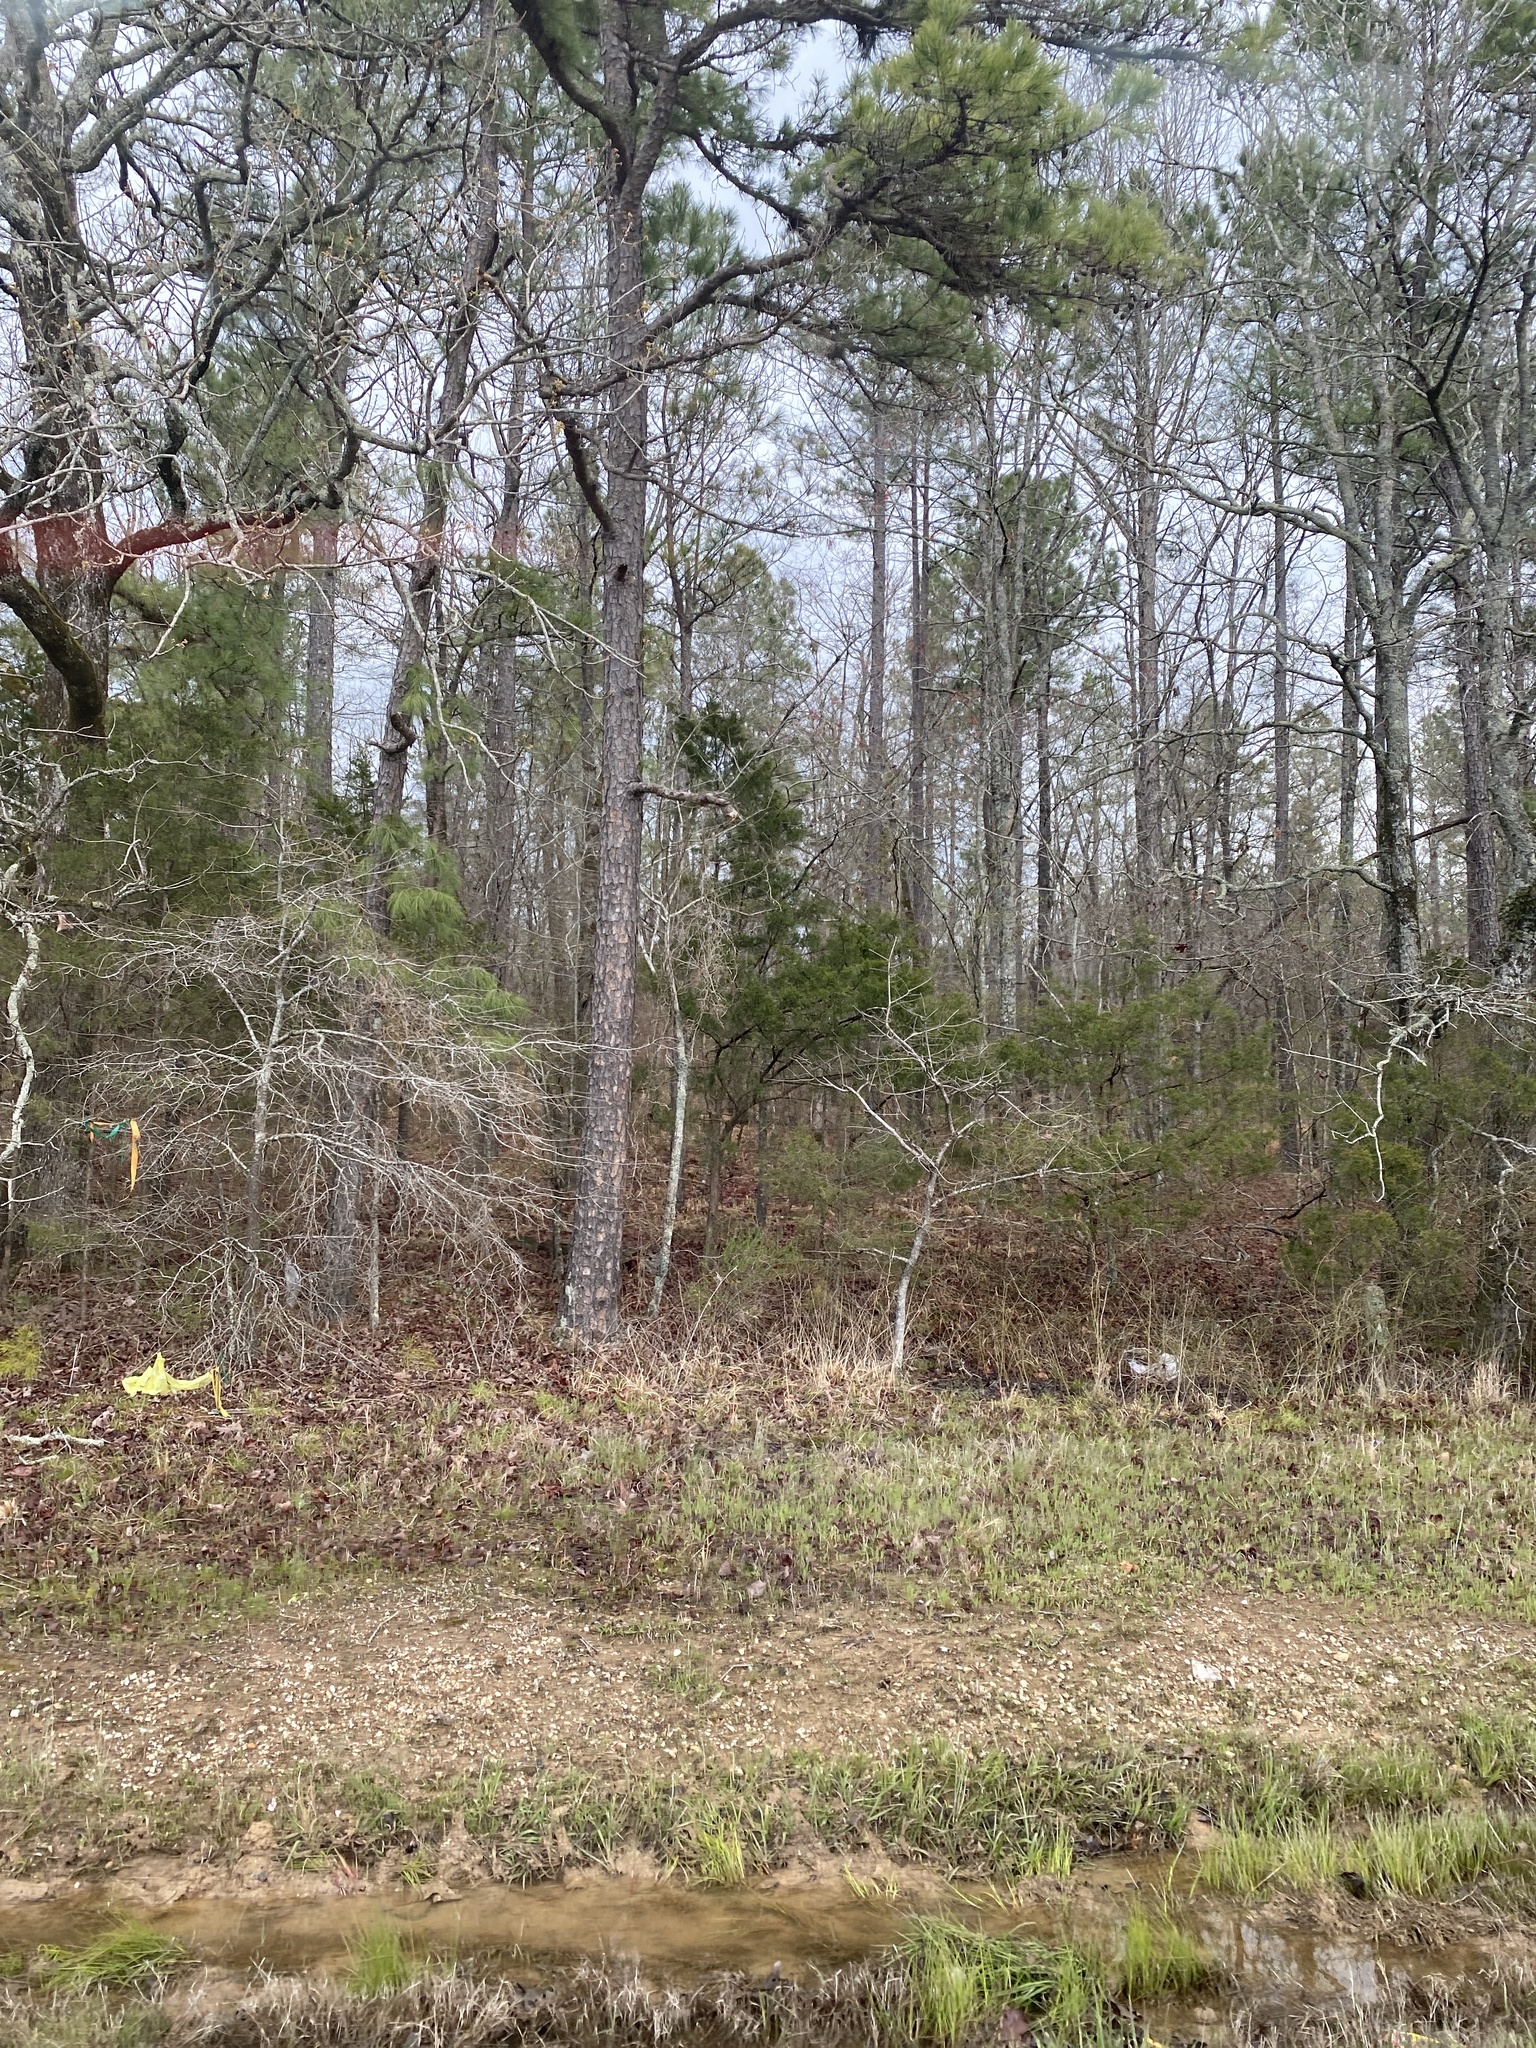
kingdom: Plantae
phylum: Tracheophyta
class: Pinopsida
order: Pinales
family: Cupressaceae
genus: Juniperus
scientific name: Juniperus virginiana
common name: Red juniper
